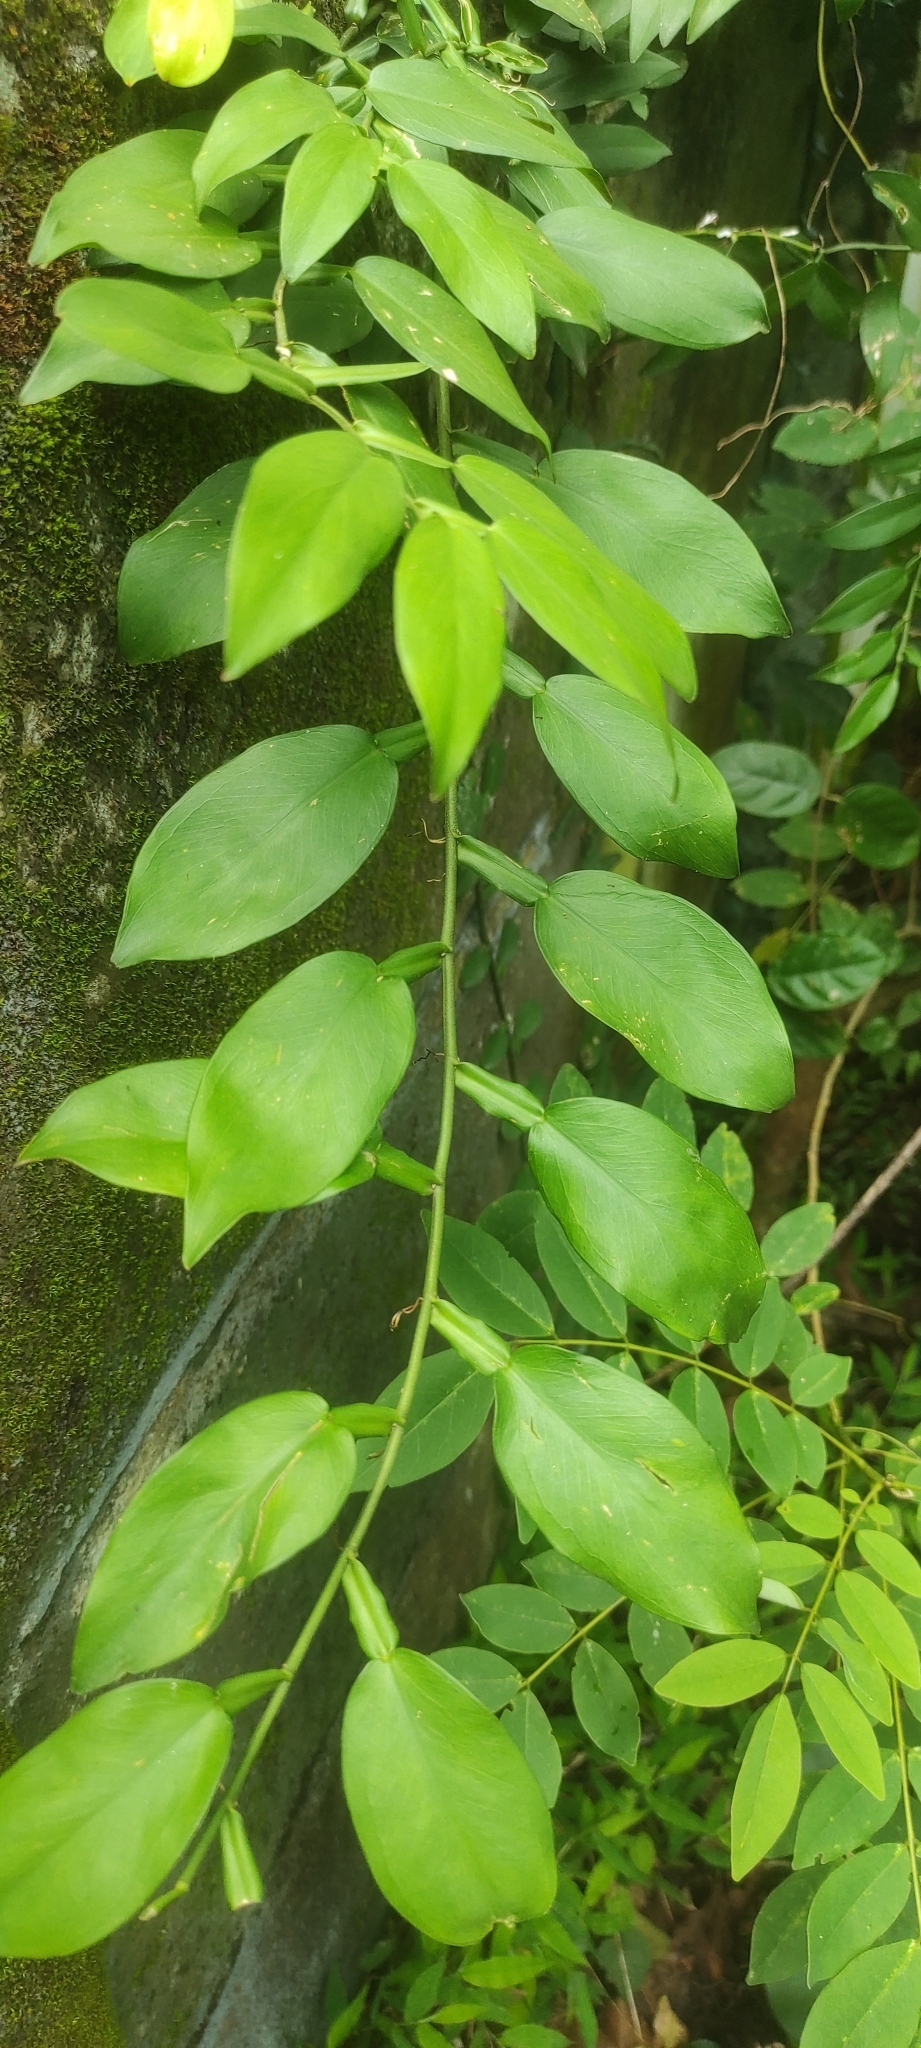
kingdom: Plantae
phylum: Tracheophyta
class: Liliopsida
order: Alismatales
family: Araceae
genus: Pothos
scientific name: Pothos chinensis
